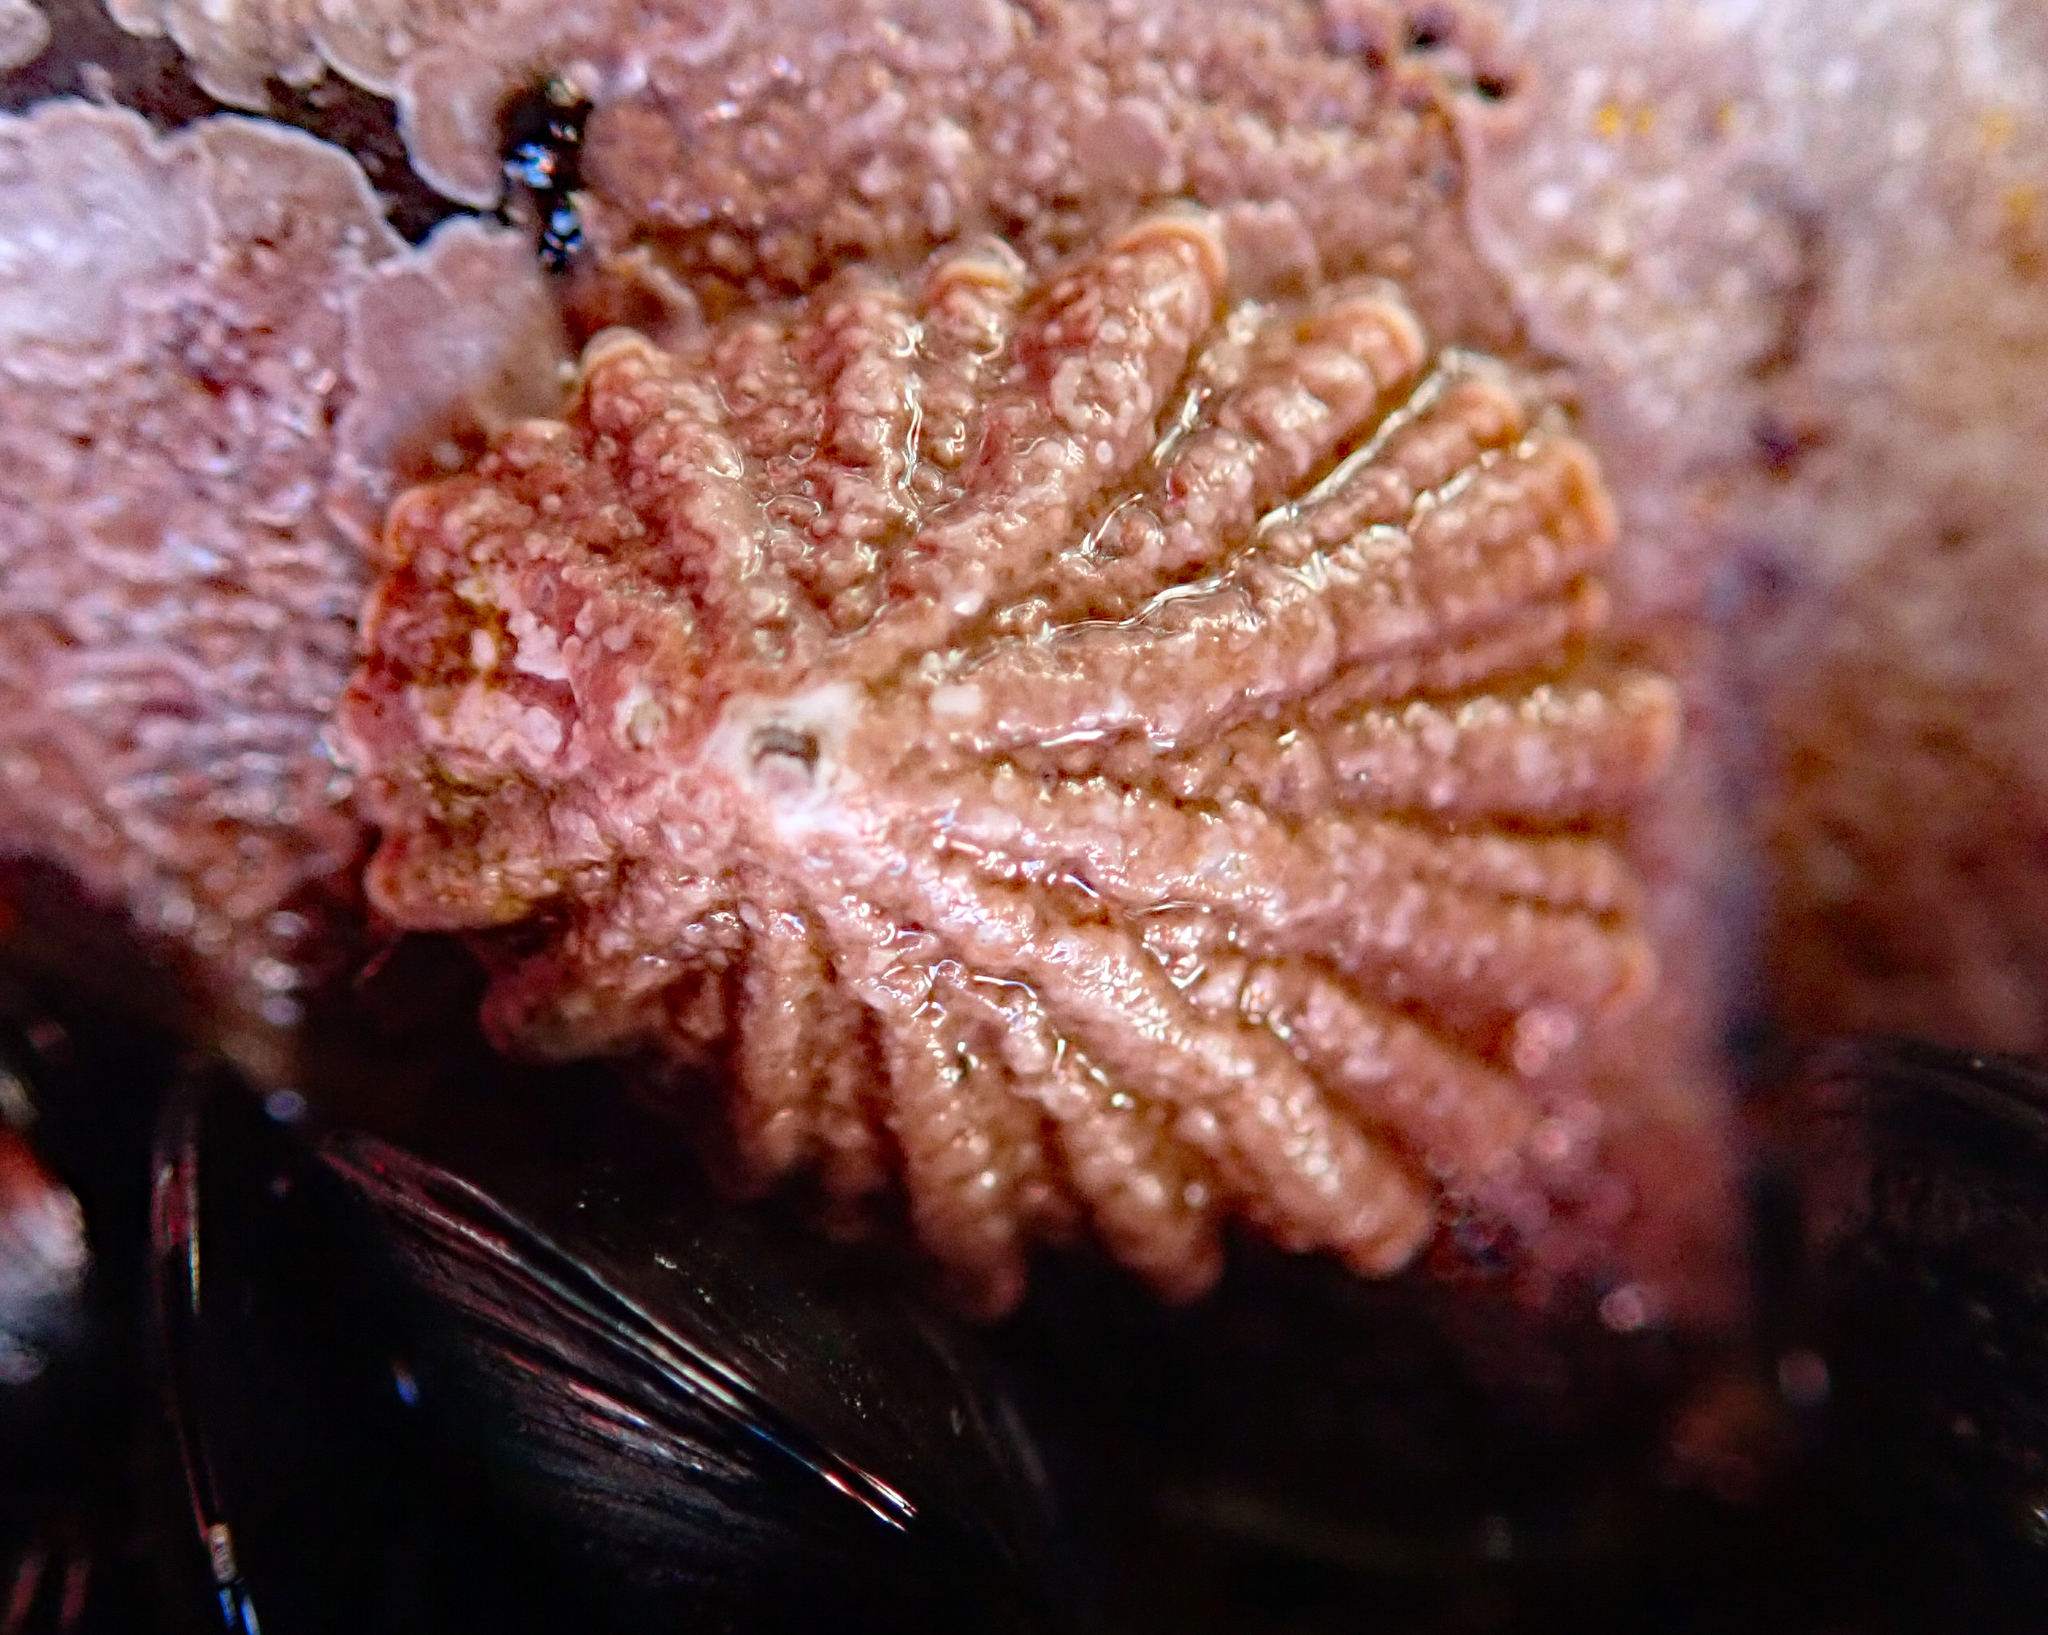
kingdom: Animalia
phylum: Mollusca
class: Gastropoda
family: Lottiidae
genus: Patelloida
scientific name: Patelloida corticata
